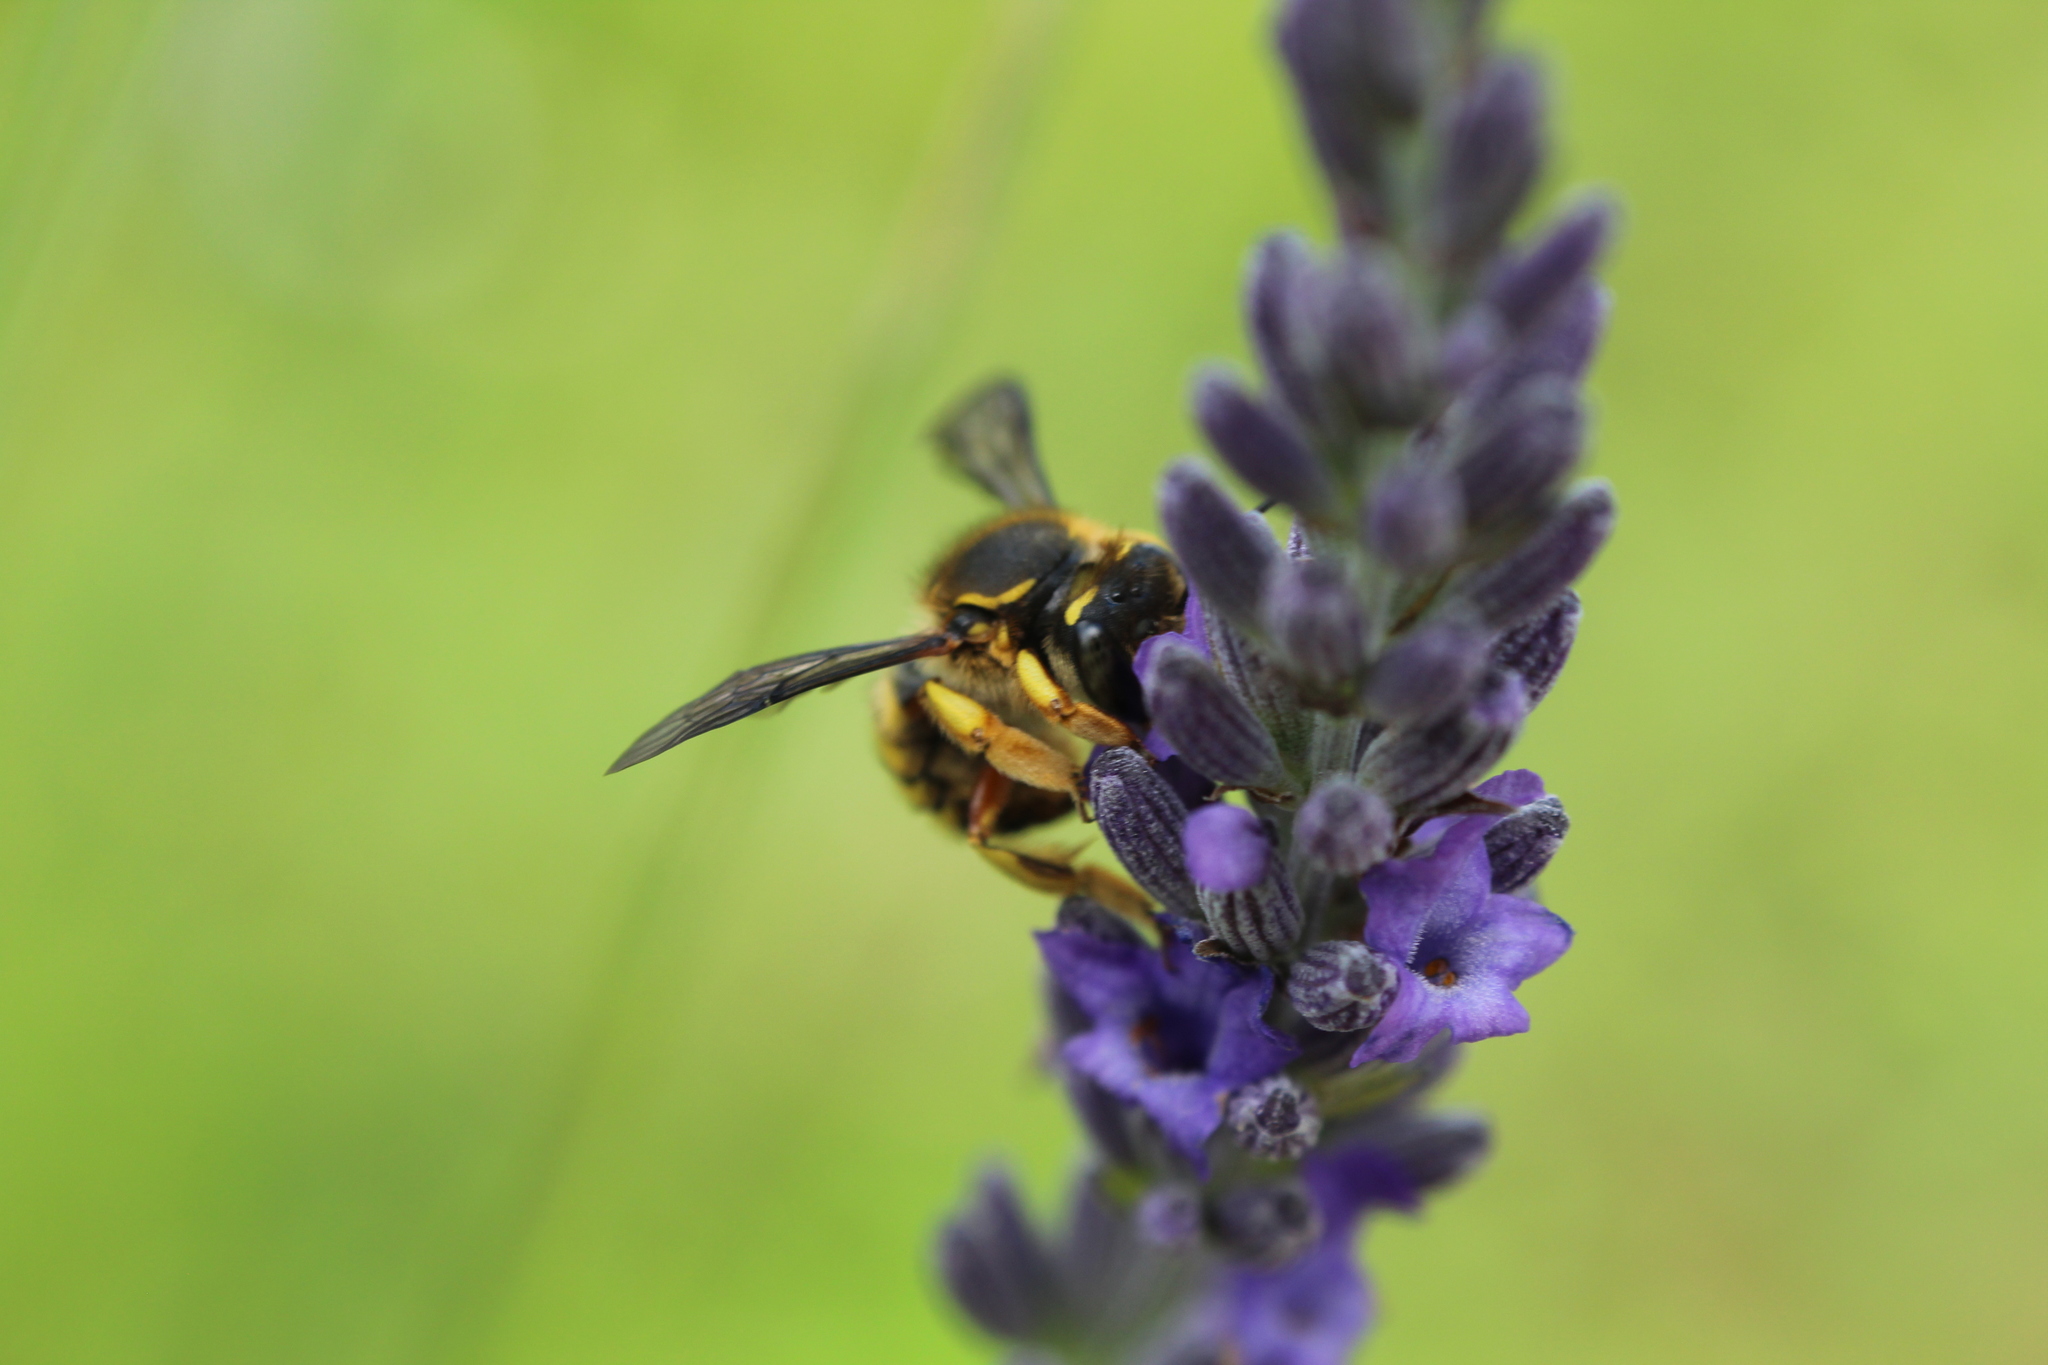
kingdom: Animalia
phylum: Arthropoda
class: Insecta
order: Hymenoptera
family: Megachilidae
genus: Anthidium
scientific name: Anthidium manicatum
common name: Wool carder bee
